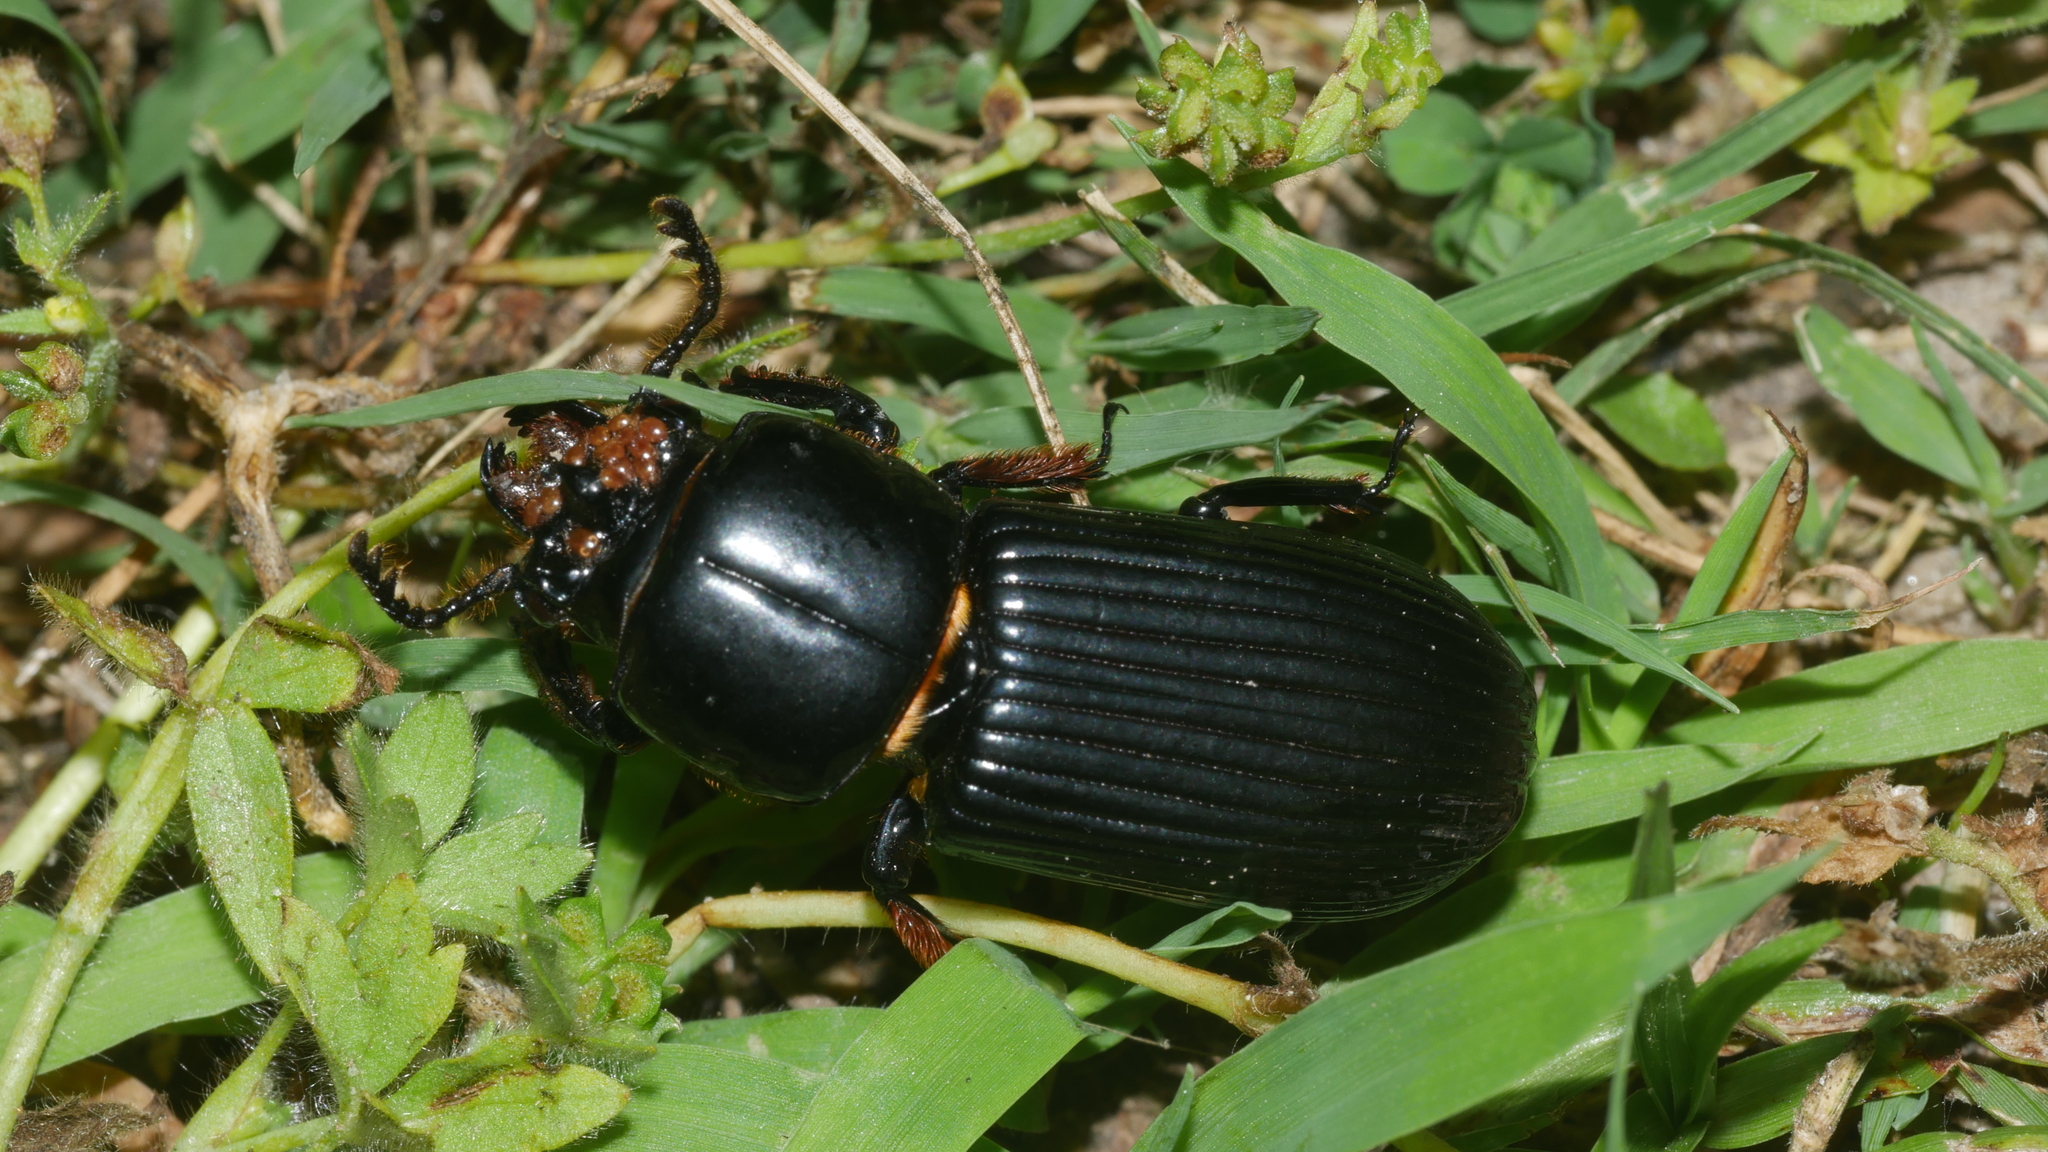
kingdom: Animalia
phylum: Arthropoda
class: Insecta
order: Coleoptera
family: Passalidae
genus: Odontotaenius
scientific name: Odontotaenius disjunctus
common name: Patent leather beetle
